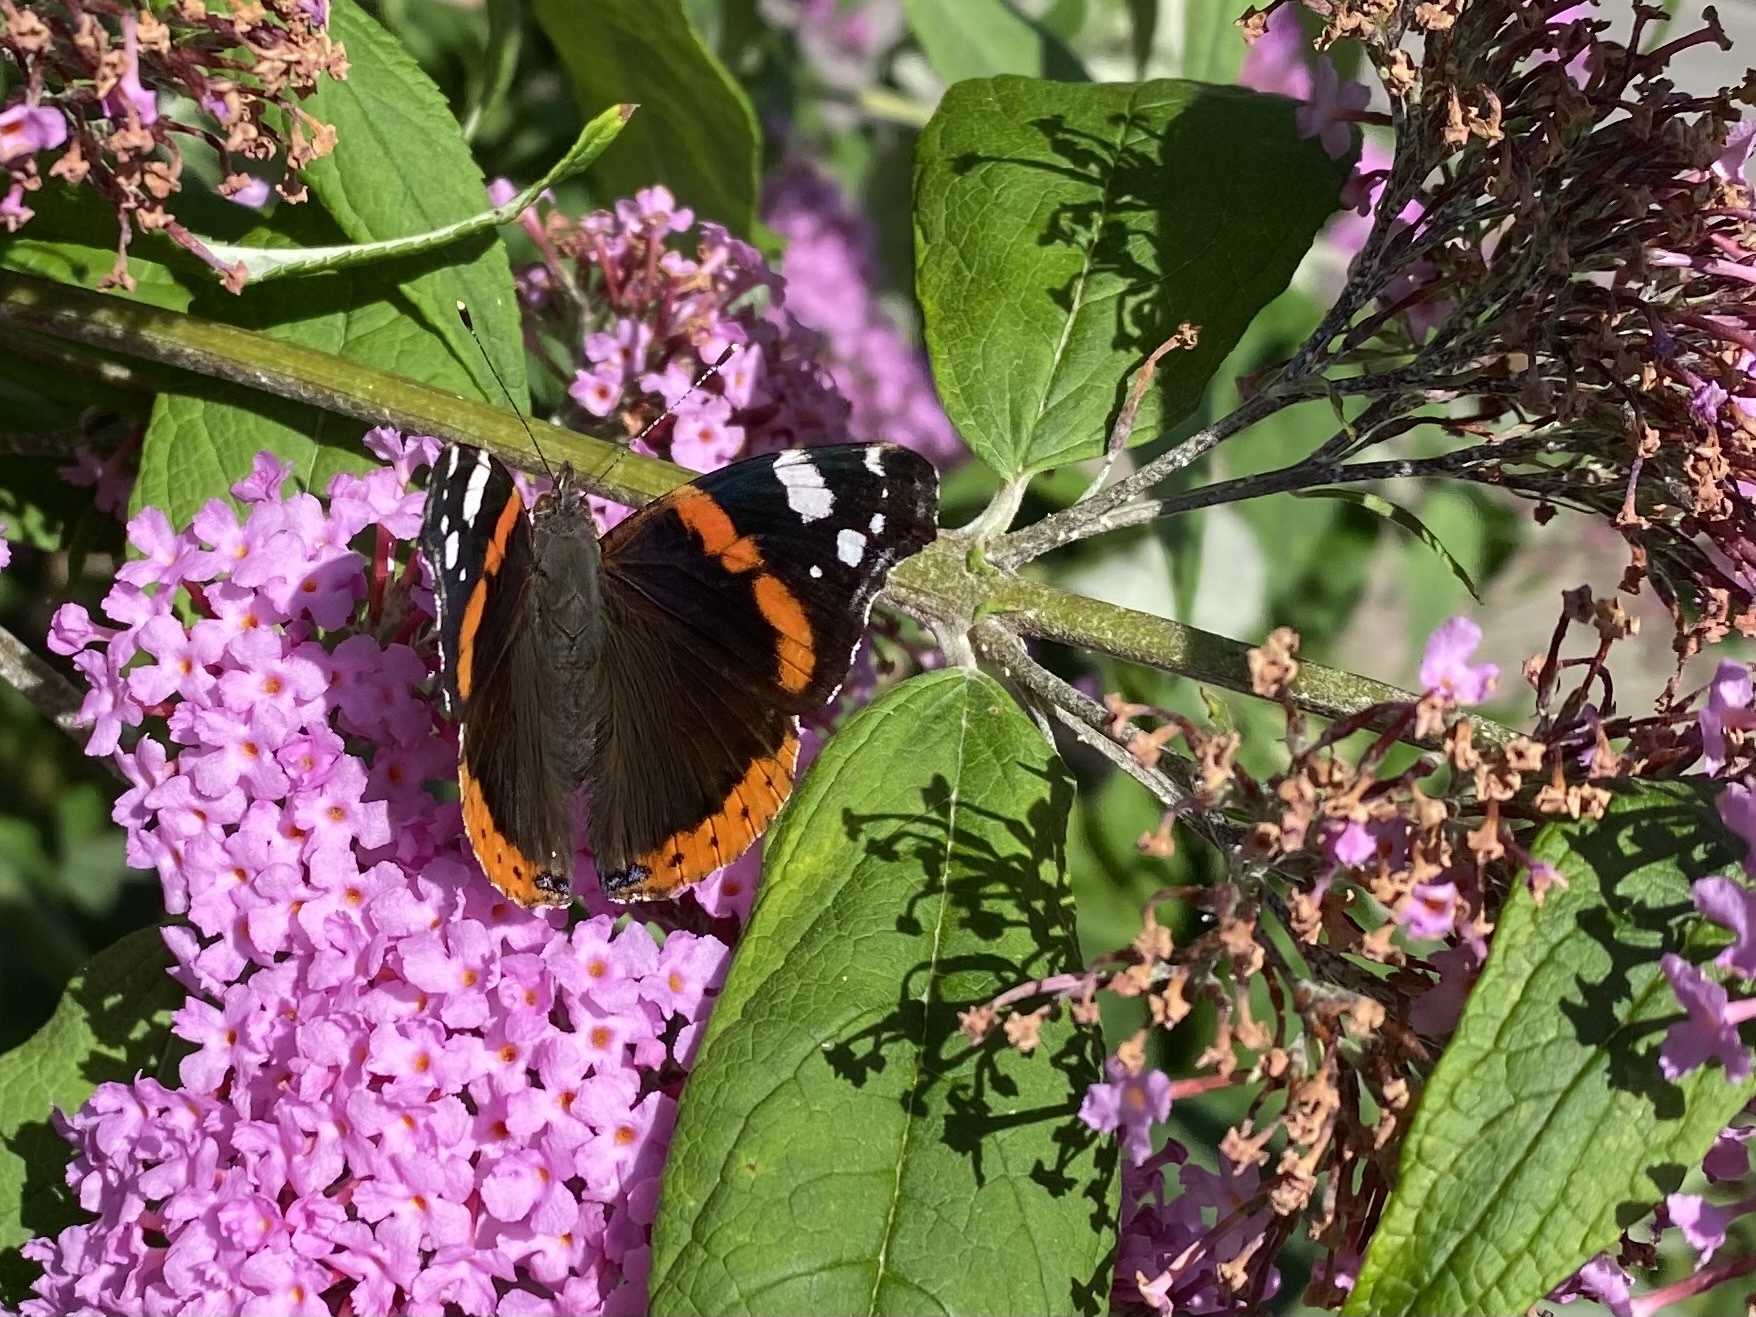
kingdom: Animalia
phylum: Arthropoda
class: Insecta
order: Lepidoptera
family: Nymphalidae
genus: Vanessa
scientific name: Vanessa atalanta
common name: Red admiral
